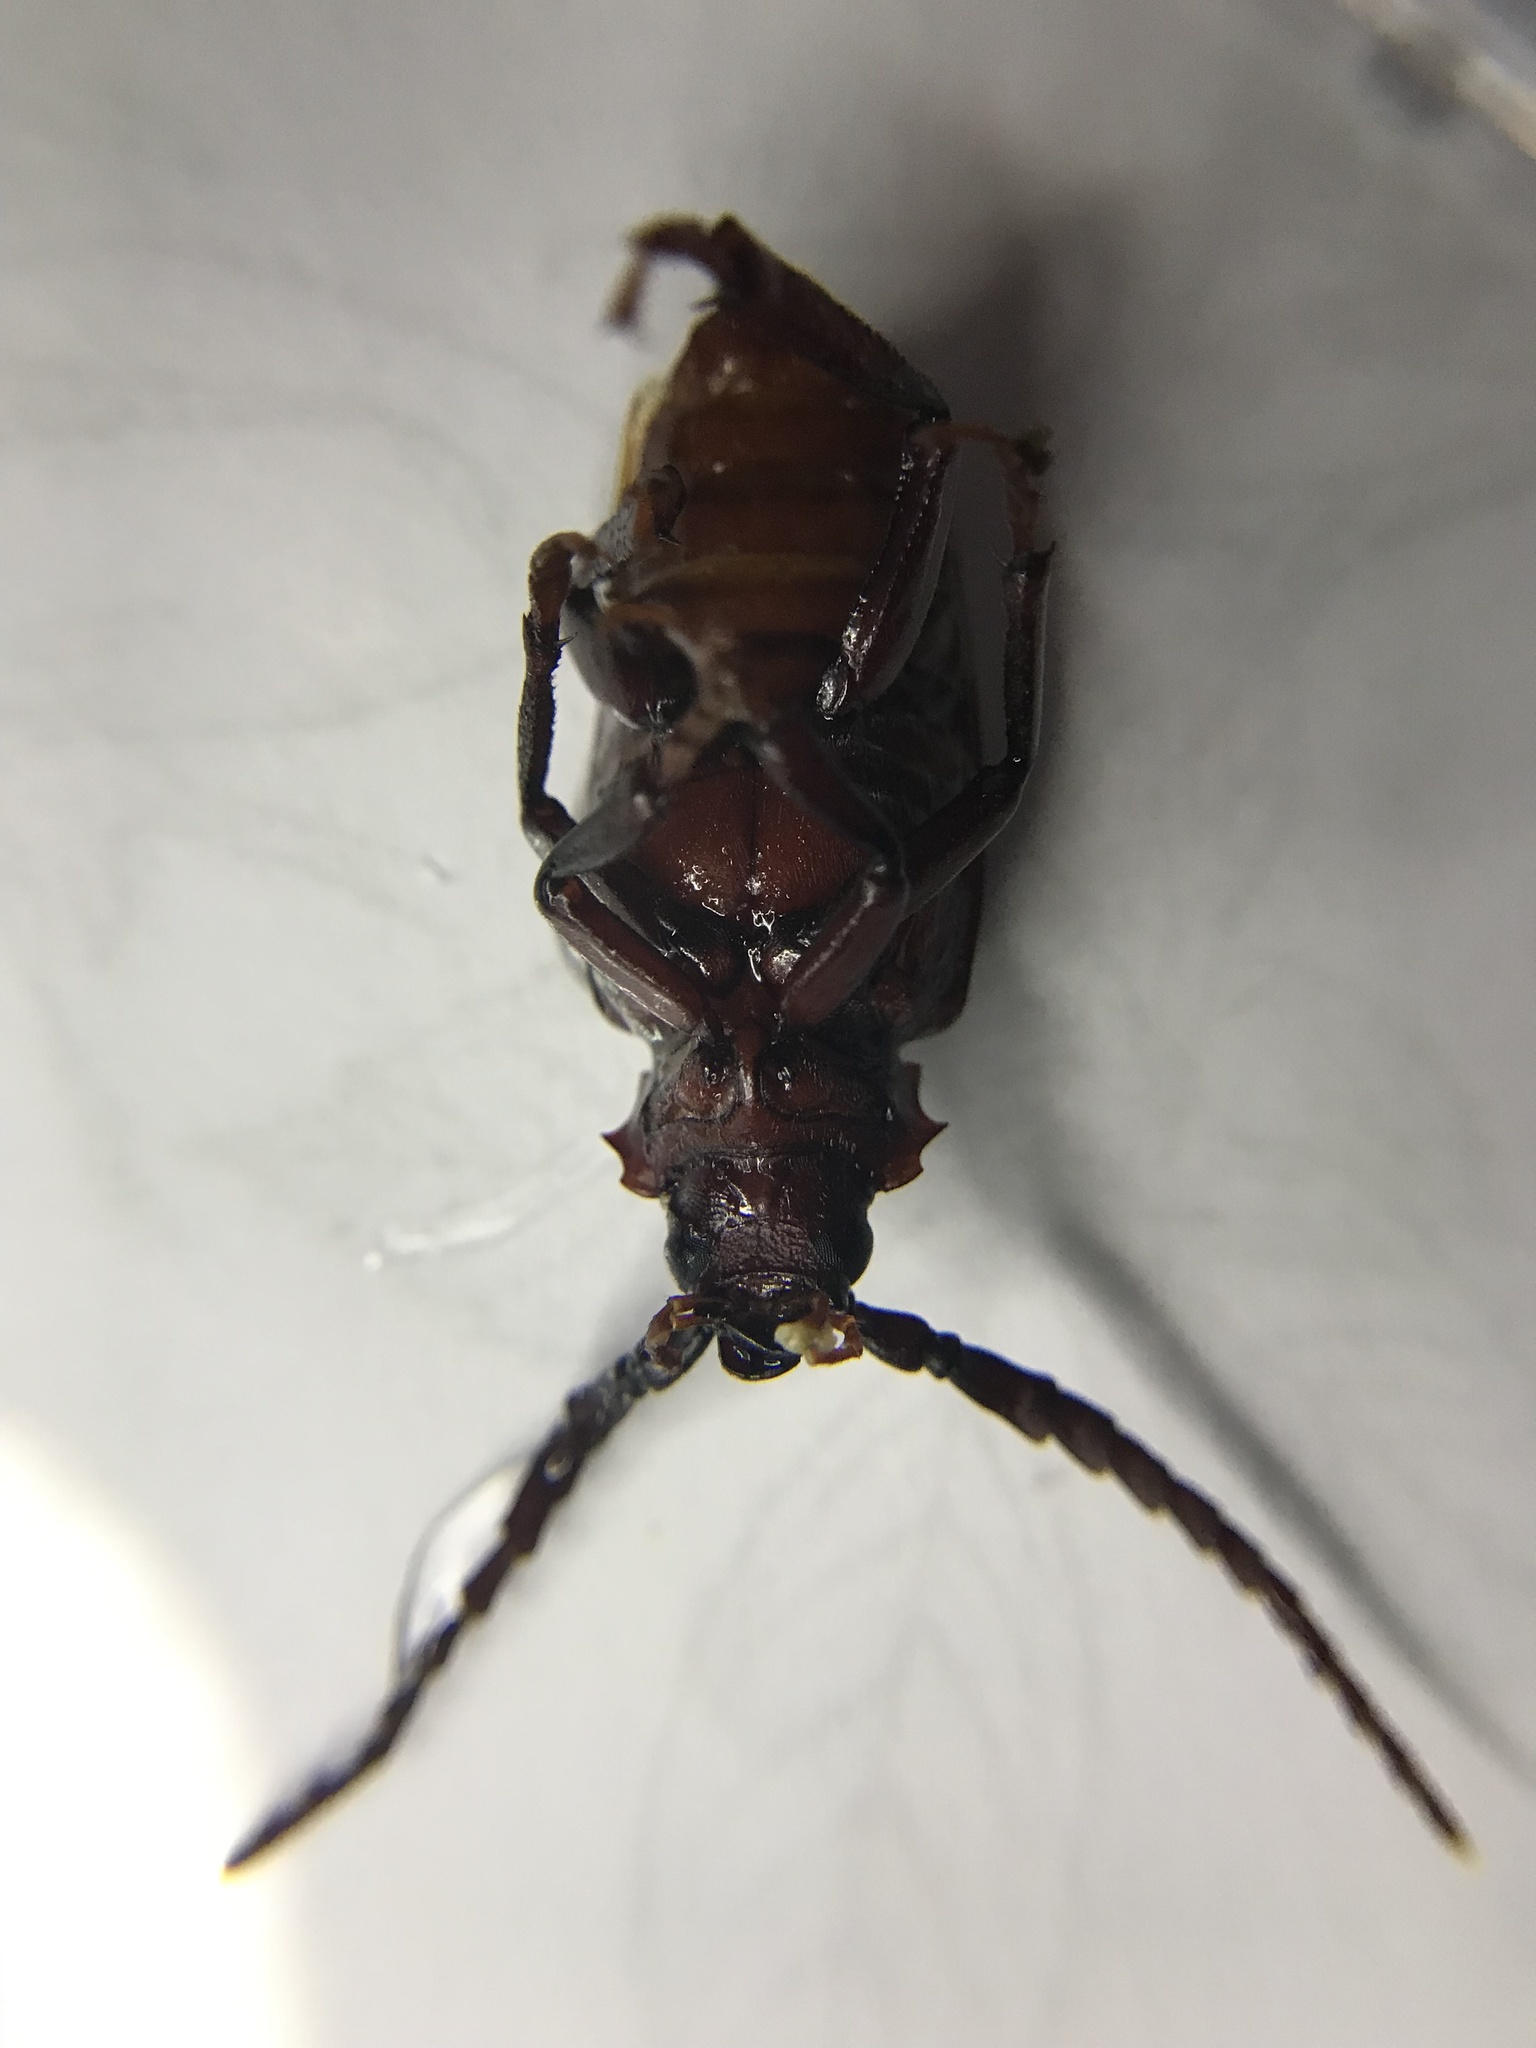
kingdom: Animalia
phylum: Arthropoda
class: Insecta
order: Coleoptera
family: Cerambycidae
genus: Prionus
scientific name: Prionus laticollis
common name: Broad necked prionus
